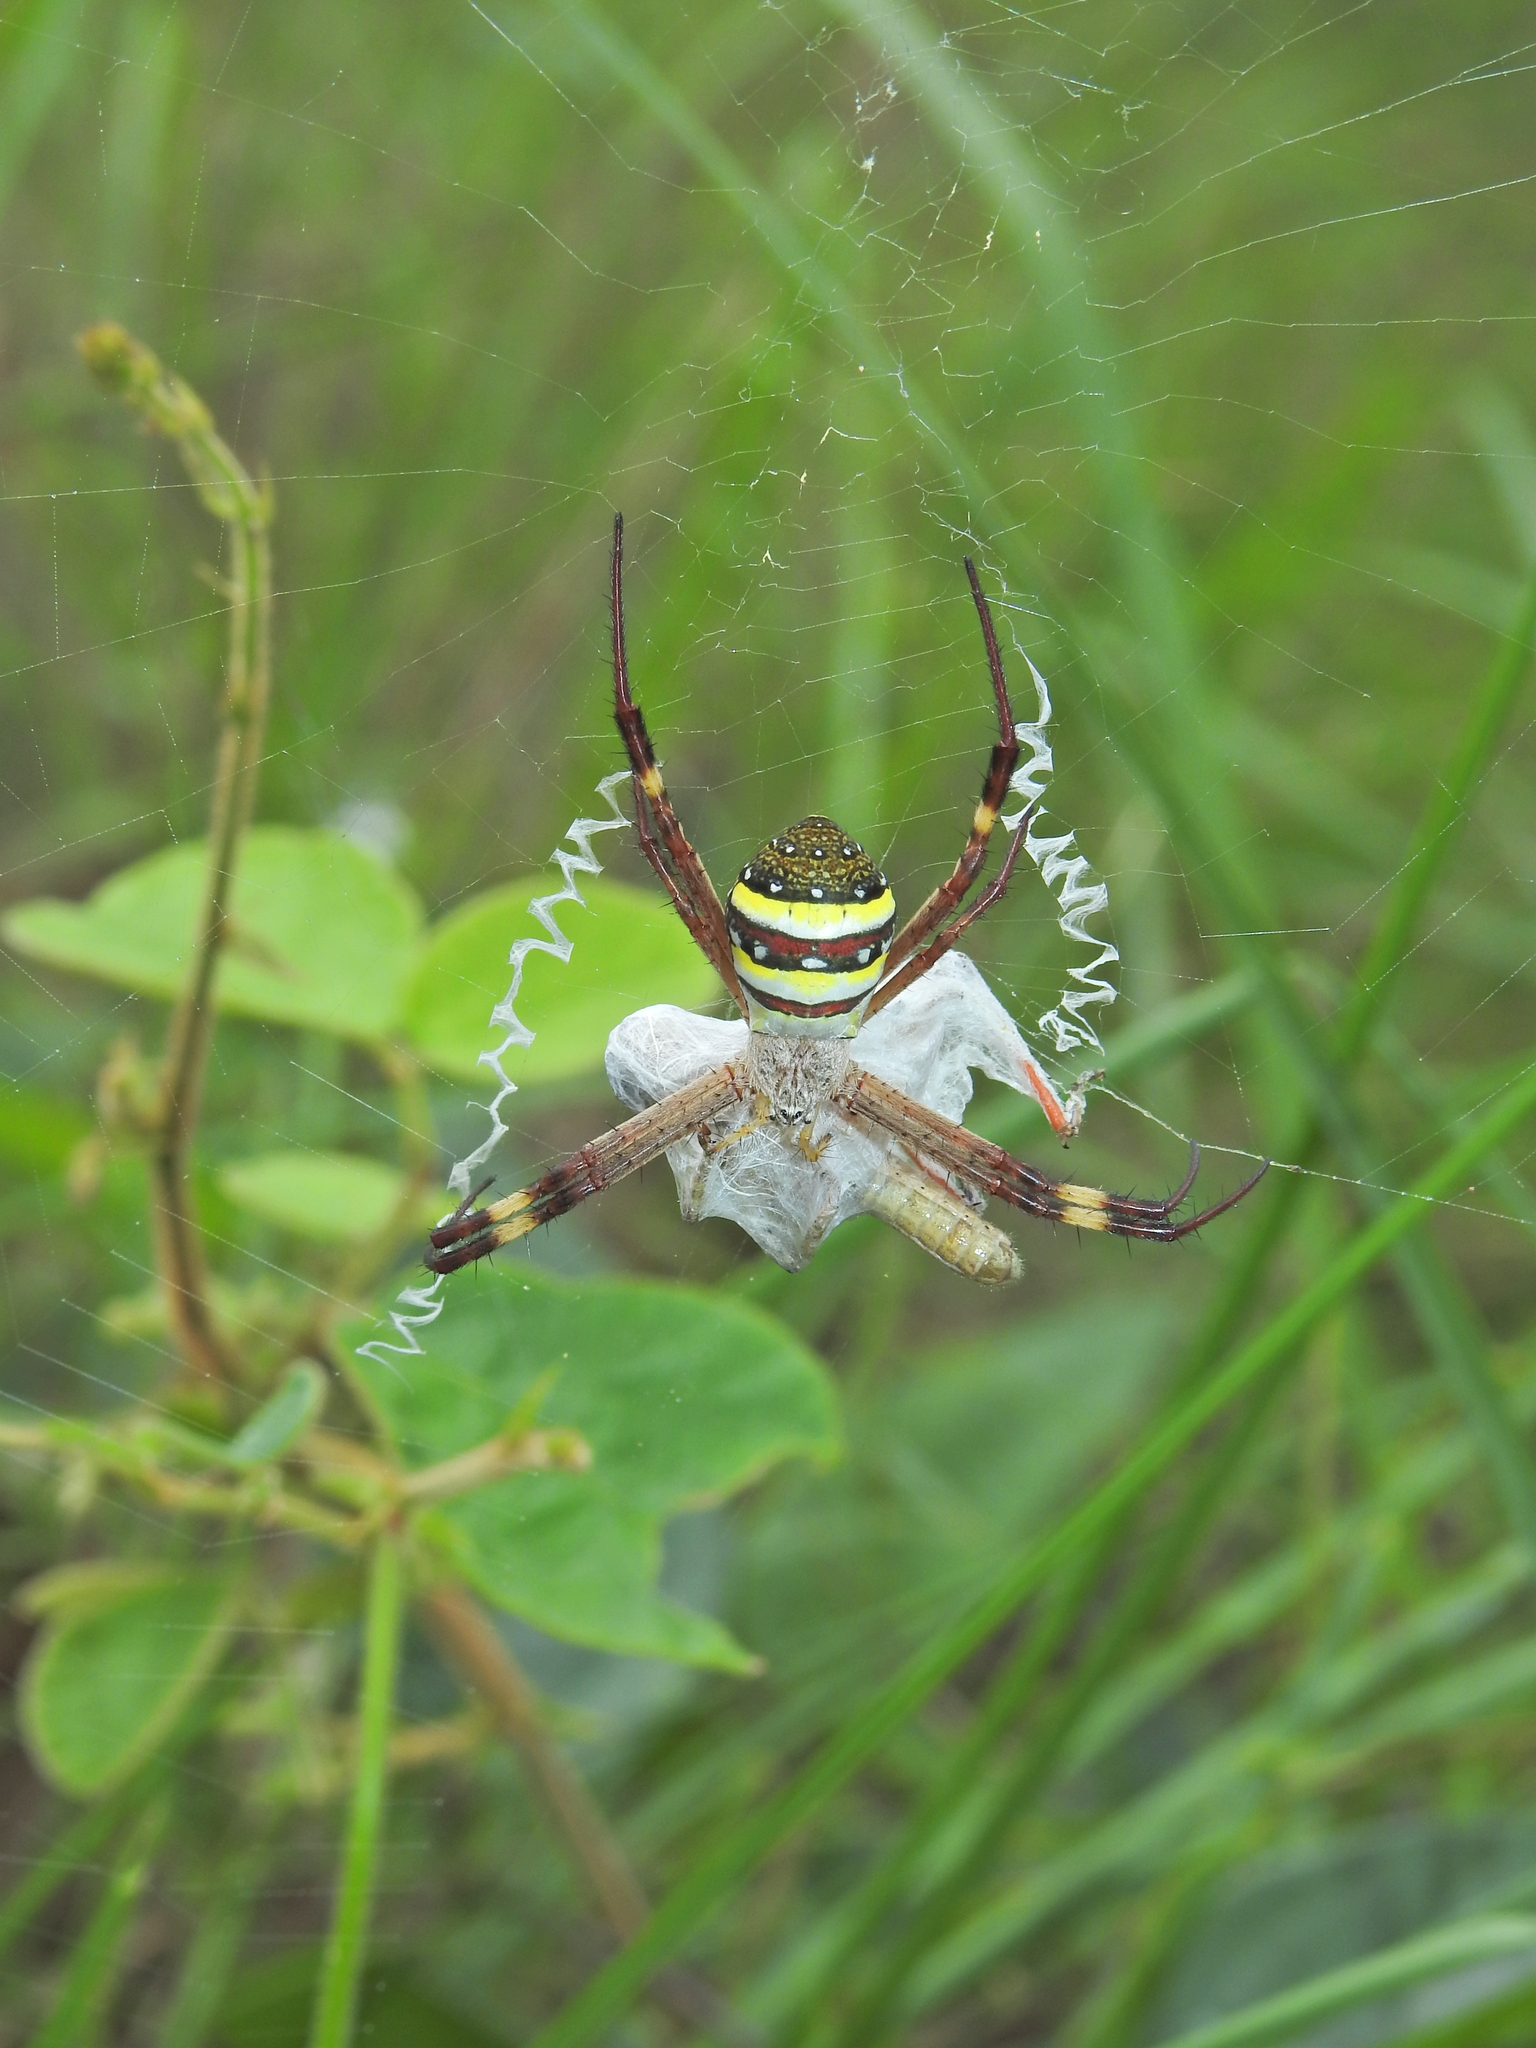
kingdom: Animalia
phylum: Arthropoda
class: Arachnida
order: Araneae
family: Araneidae
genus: Argiope
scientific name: Argiope keyserlingi
